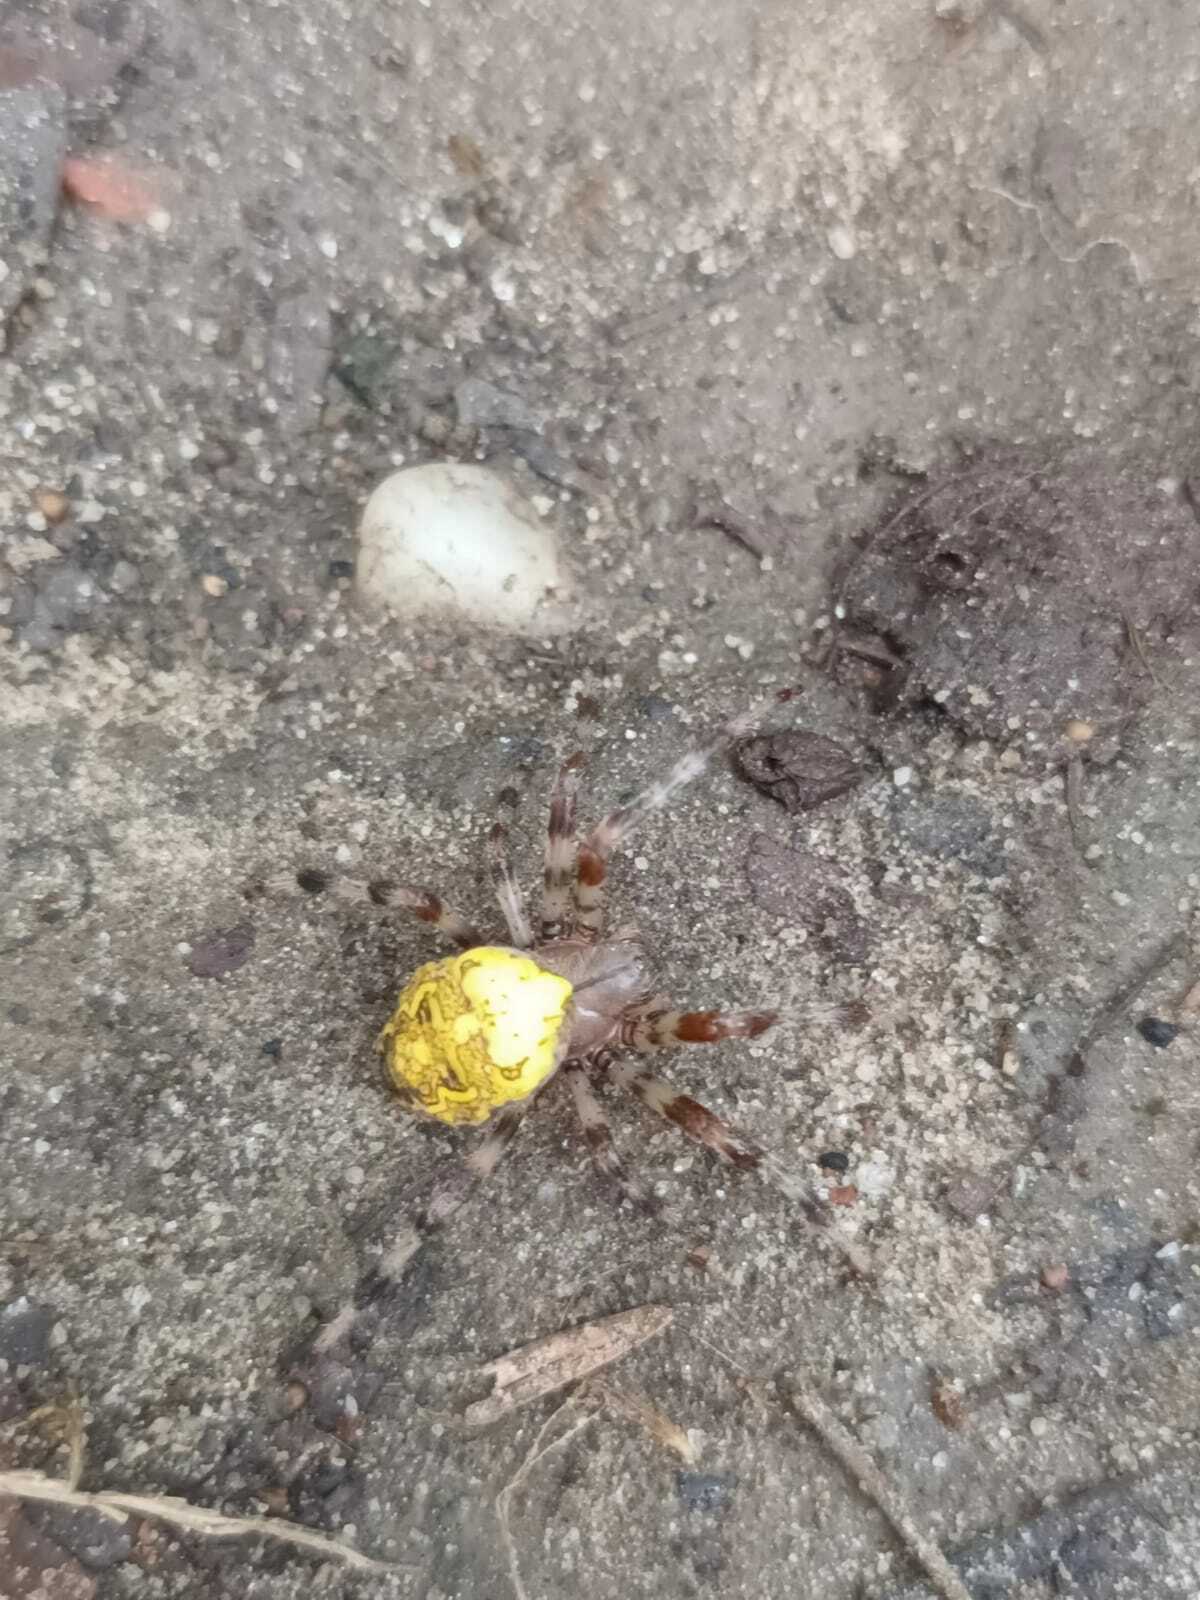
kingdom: Animalia
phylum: Arthropoda
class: Arachnida
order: Araneae
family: Araneidae
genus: Araneus
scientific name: Araneus marmoreus
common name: Marbled orbweaver
